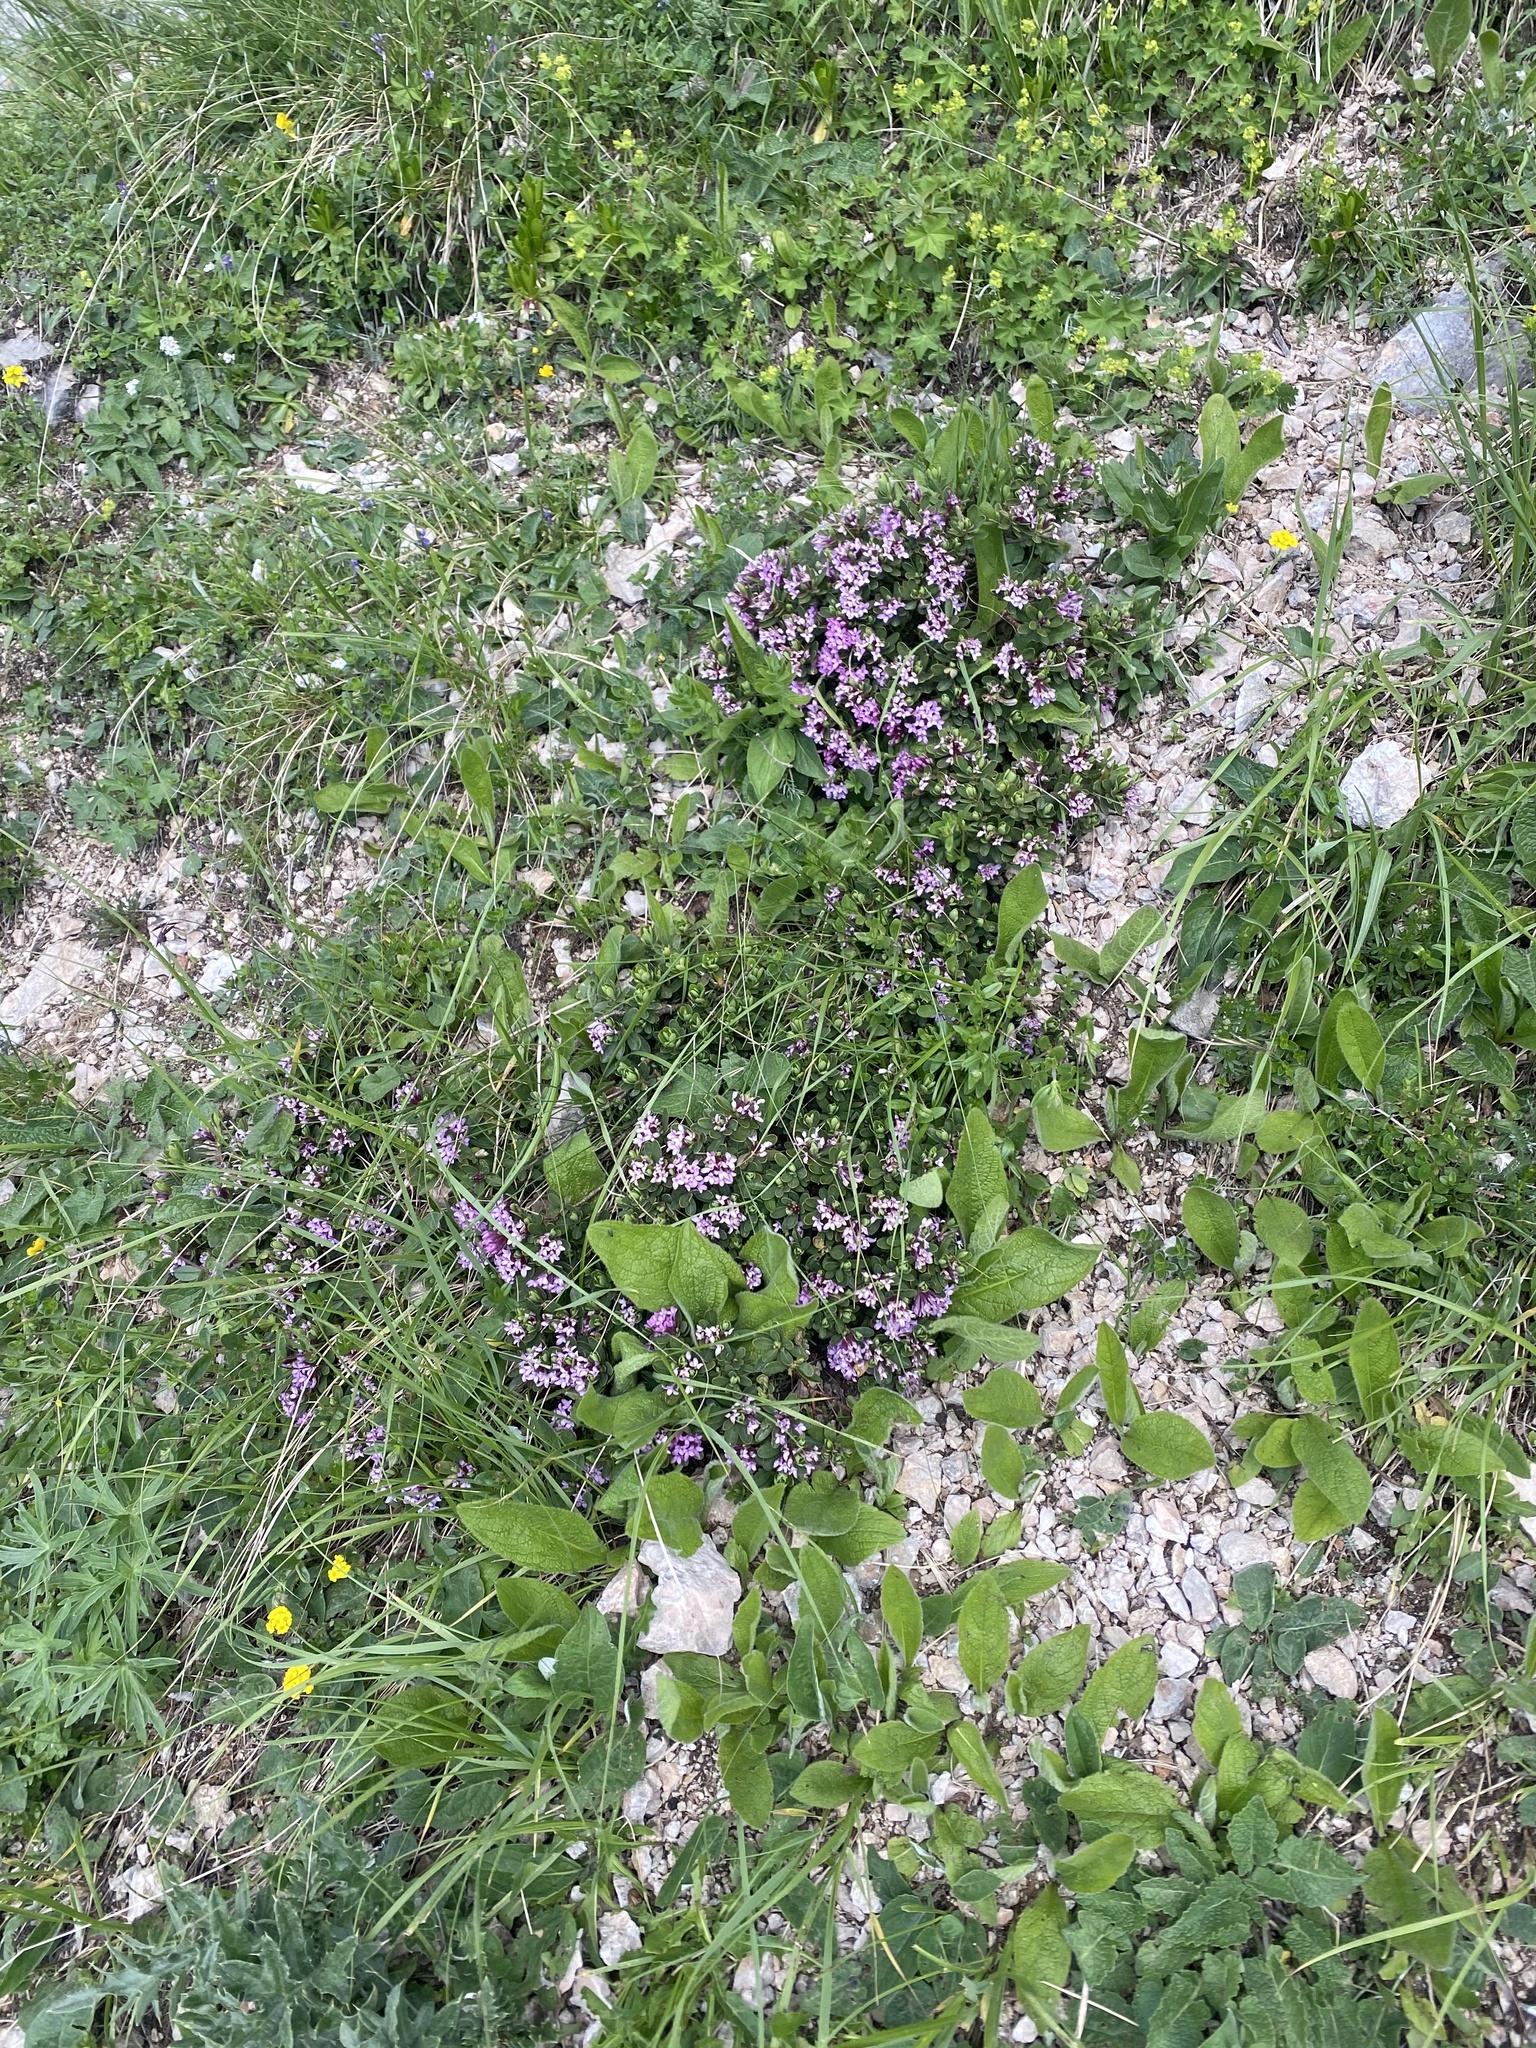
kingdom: Plantae
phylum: Tracheophyta
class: Magnoliopsida
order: Malvales
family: Thymelaeaceae
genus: Daphne
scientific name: Daphne pseudosericea
